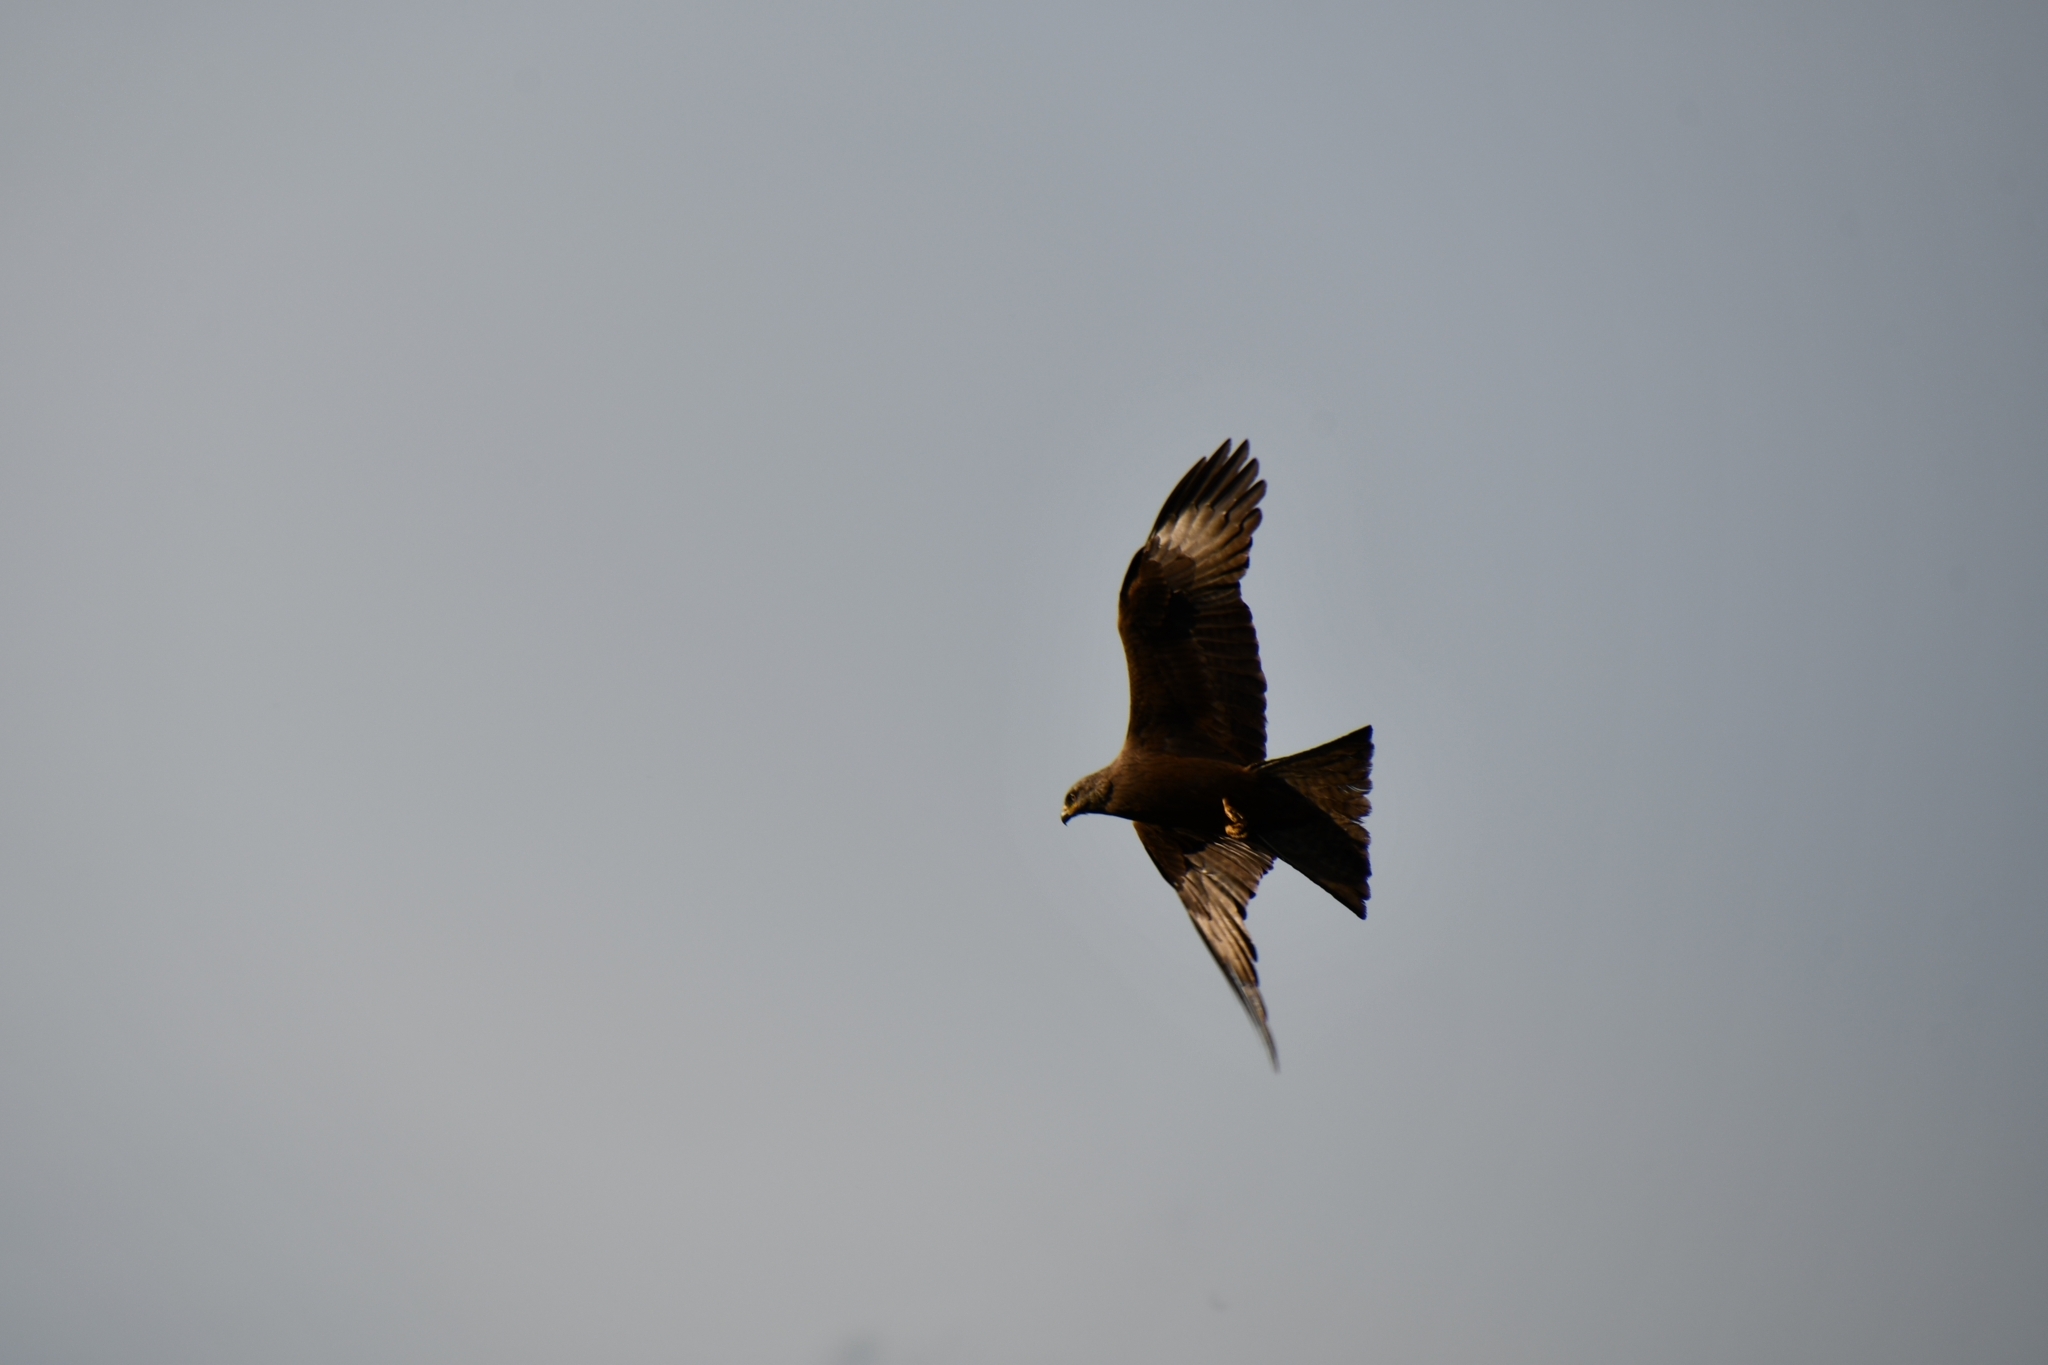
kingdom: Animalia
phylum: Chordata
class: Aves
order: Accipitriformes
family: Accipitridae
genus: Milvus
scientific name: Milvus migrans
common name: Black kite
